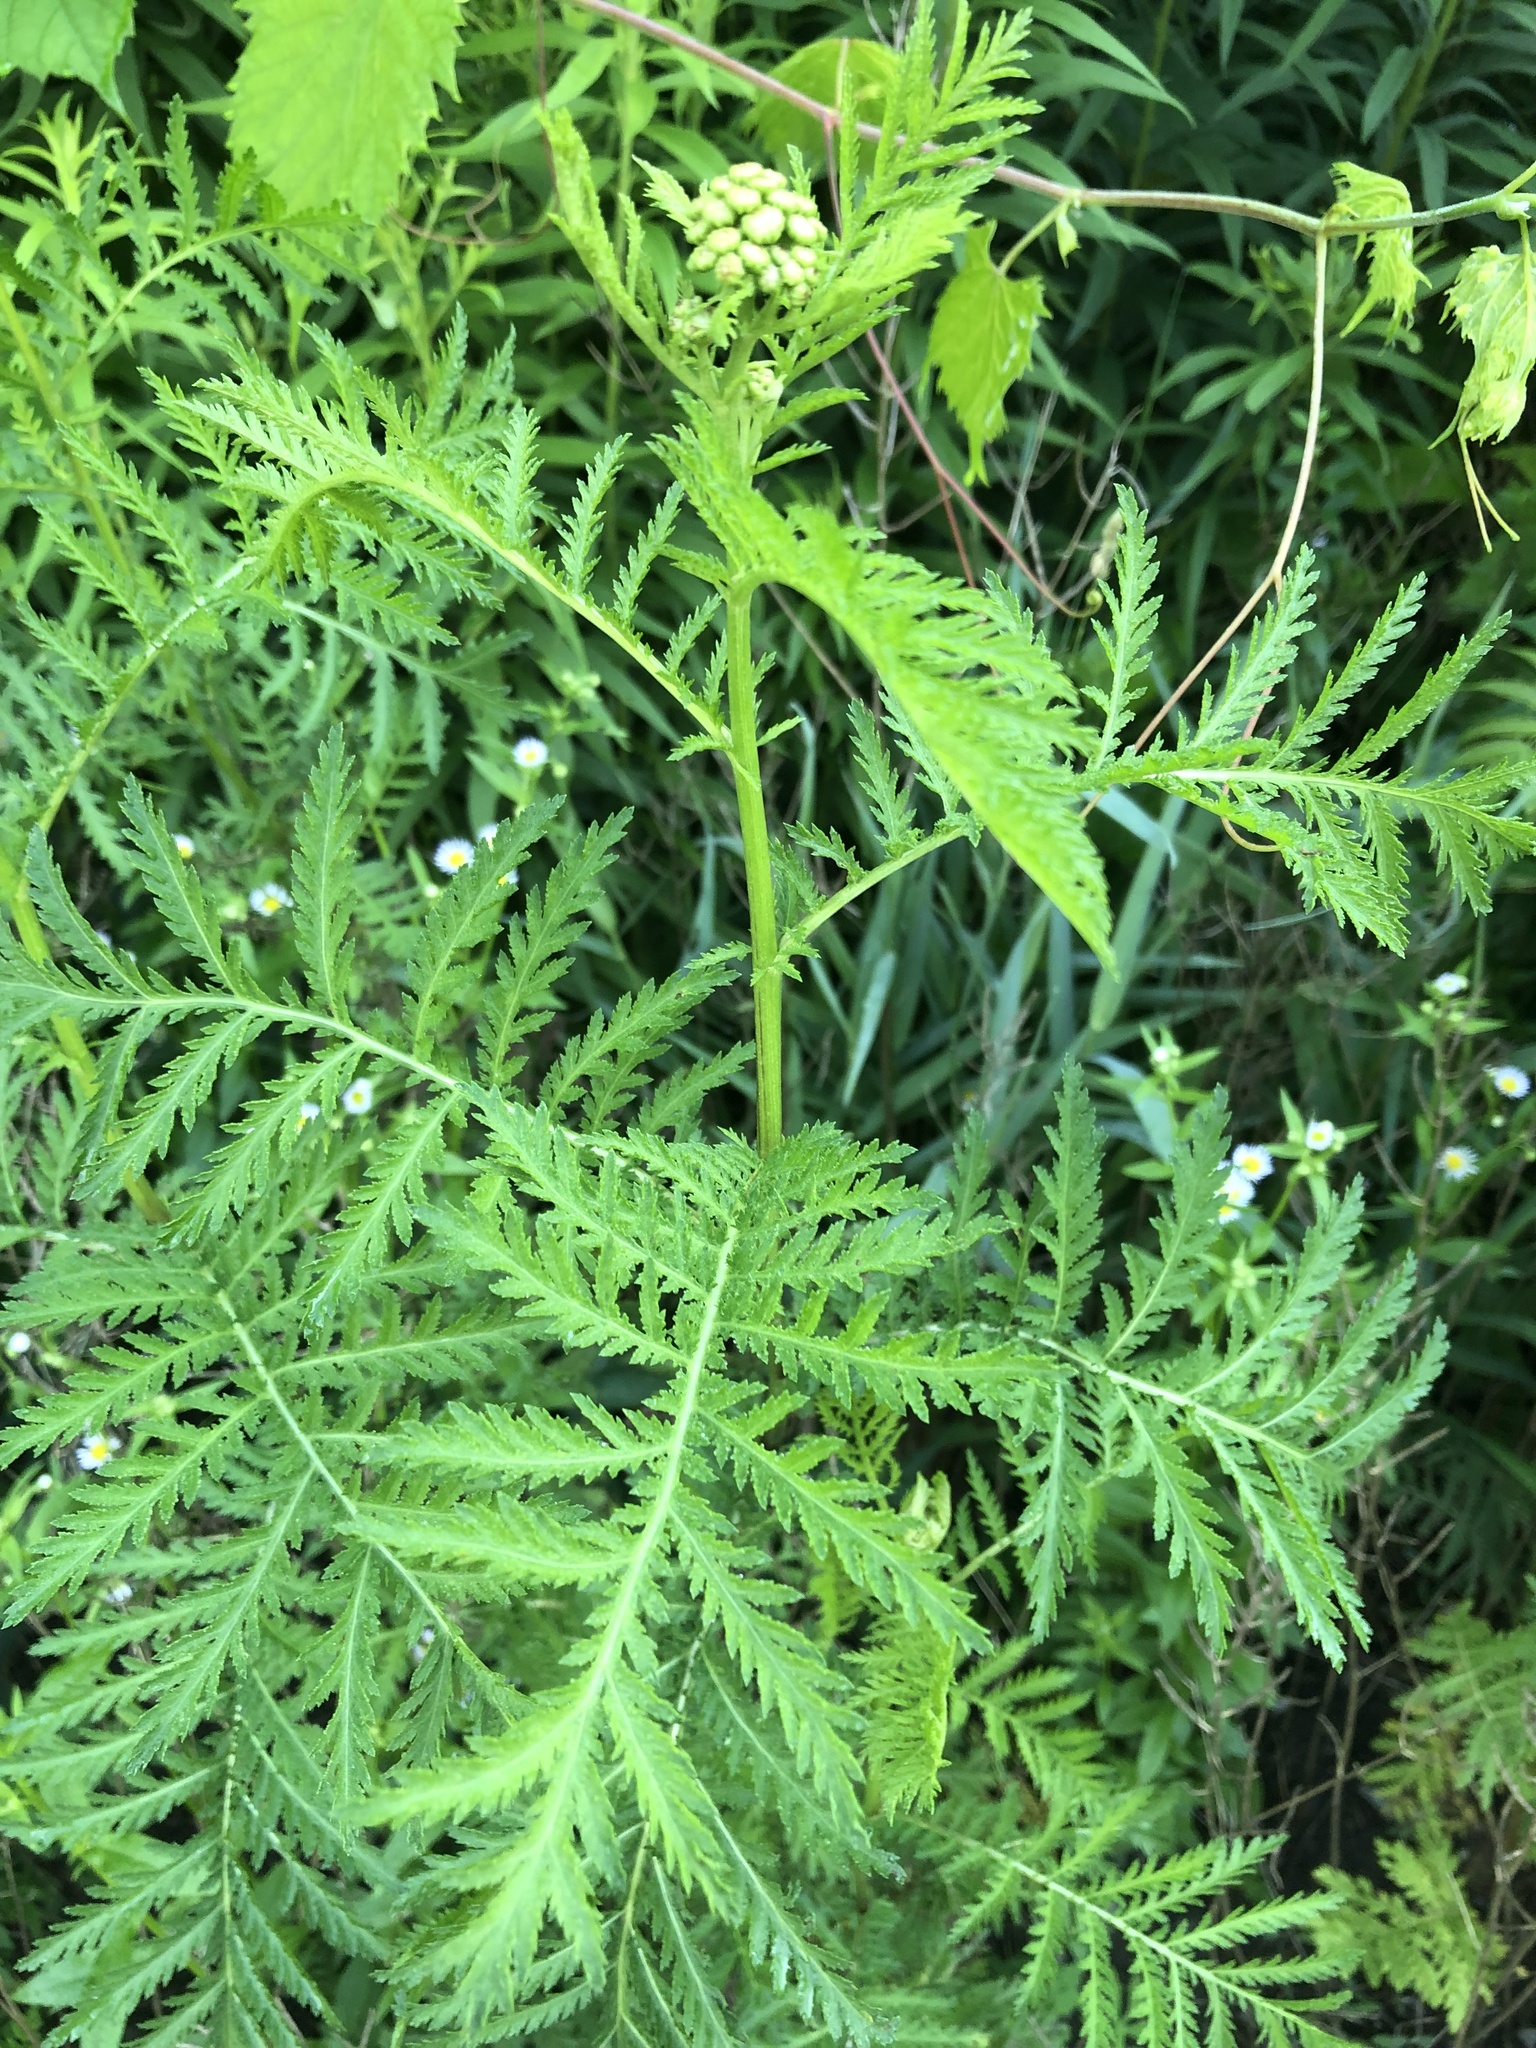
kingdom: Plantae
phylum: Tracheophyta
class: Magnoliopsida
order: Asterales
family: Asteraceae
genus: Tanacetum
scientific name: Tanacetum vulgare
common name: Common tansy
